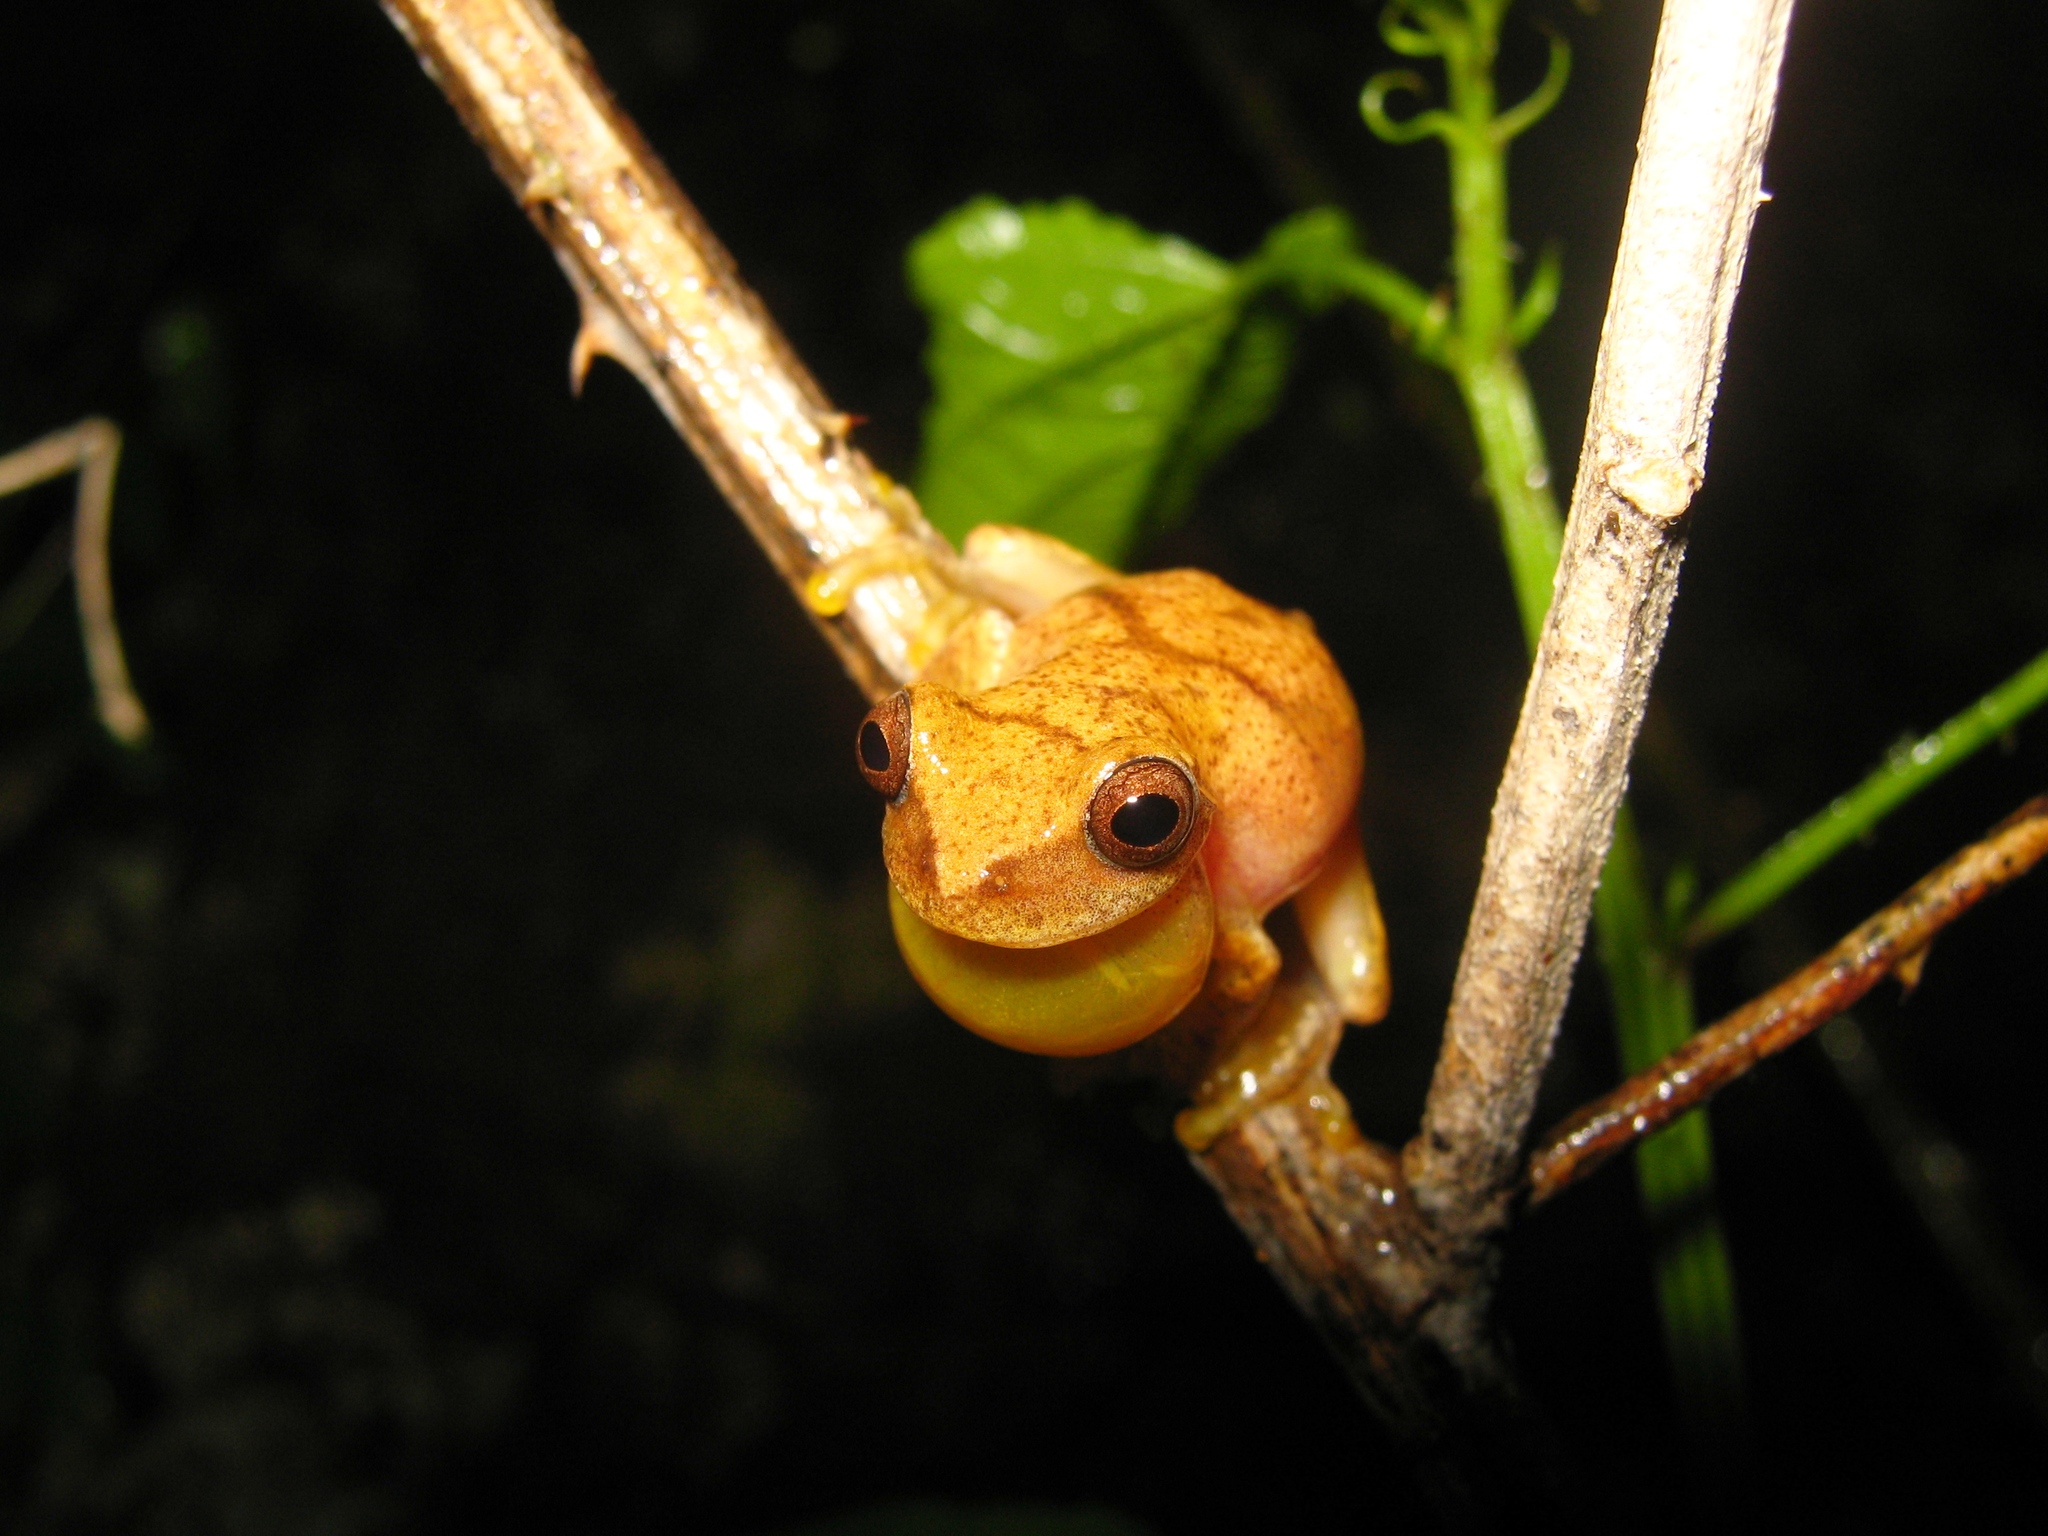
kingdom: Animalia
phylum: Chordata
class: Amphibia
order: Anura
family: Hylidae
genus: Dendropsophus
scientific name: Dendropsophus sartori
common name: Taylor's yellow treefrog
